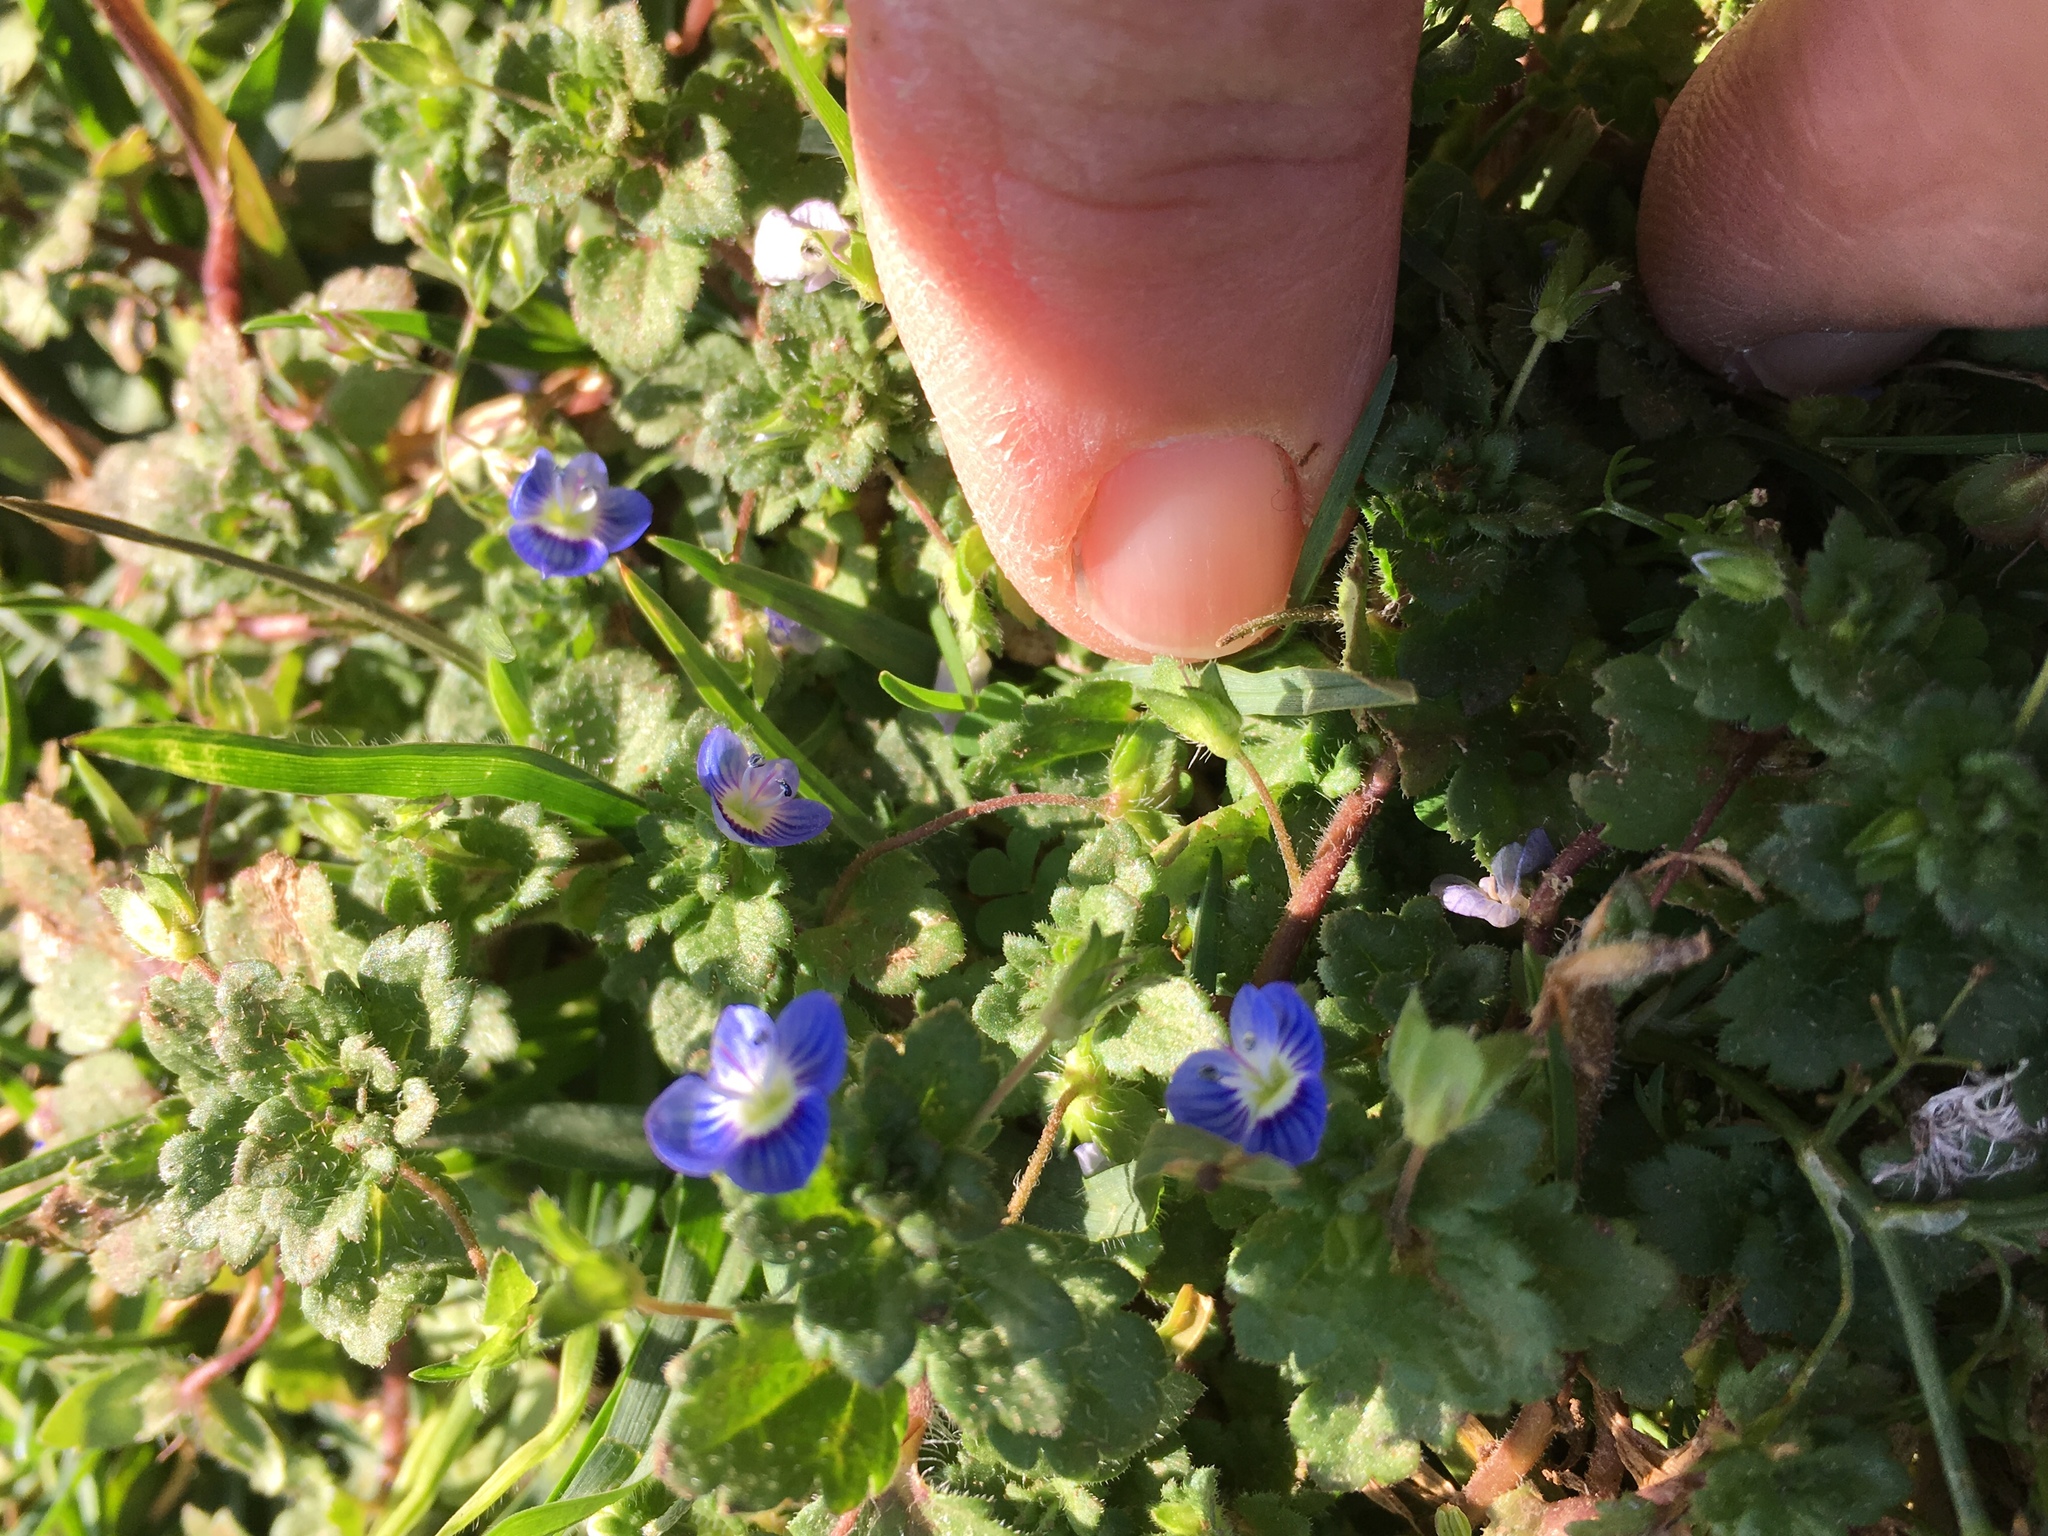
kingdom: Plantae
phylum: Tracheophyta
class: Magnoliopsida
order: Lamiales
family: Plantaginaceae
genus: Veronica
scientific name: Veronica persica
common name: Common field-speedwell
